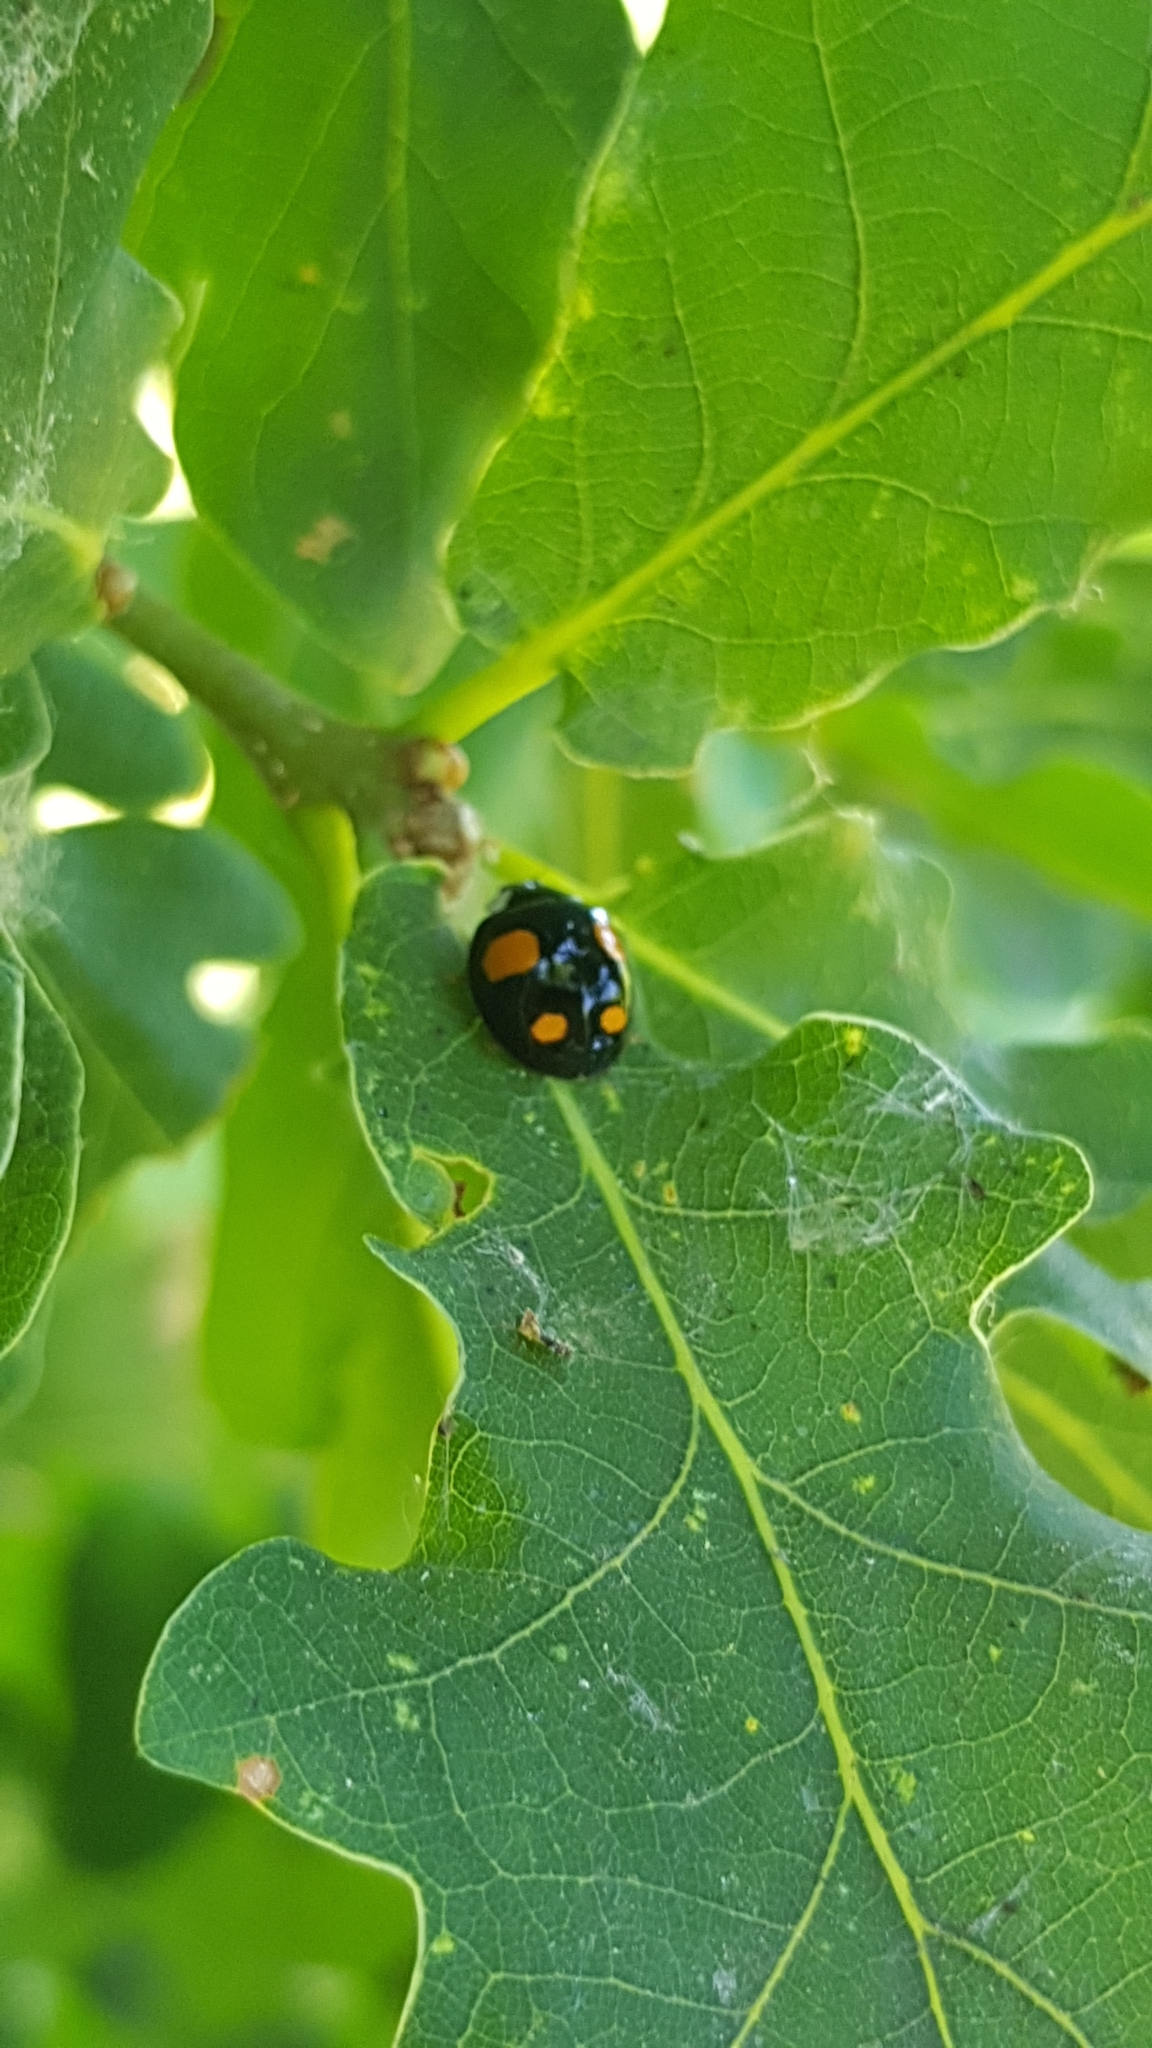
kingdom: Animalia
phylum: Arthropoda
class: Insecta
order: Coleoptera
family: Coccinellidae
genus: Harmonia
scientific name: Harmonia axyridis
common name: Harlequin ladybird
